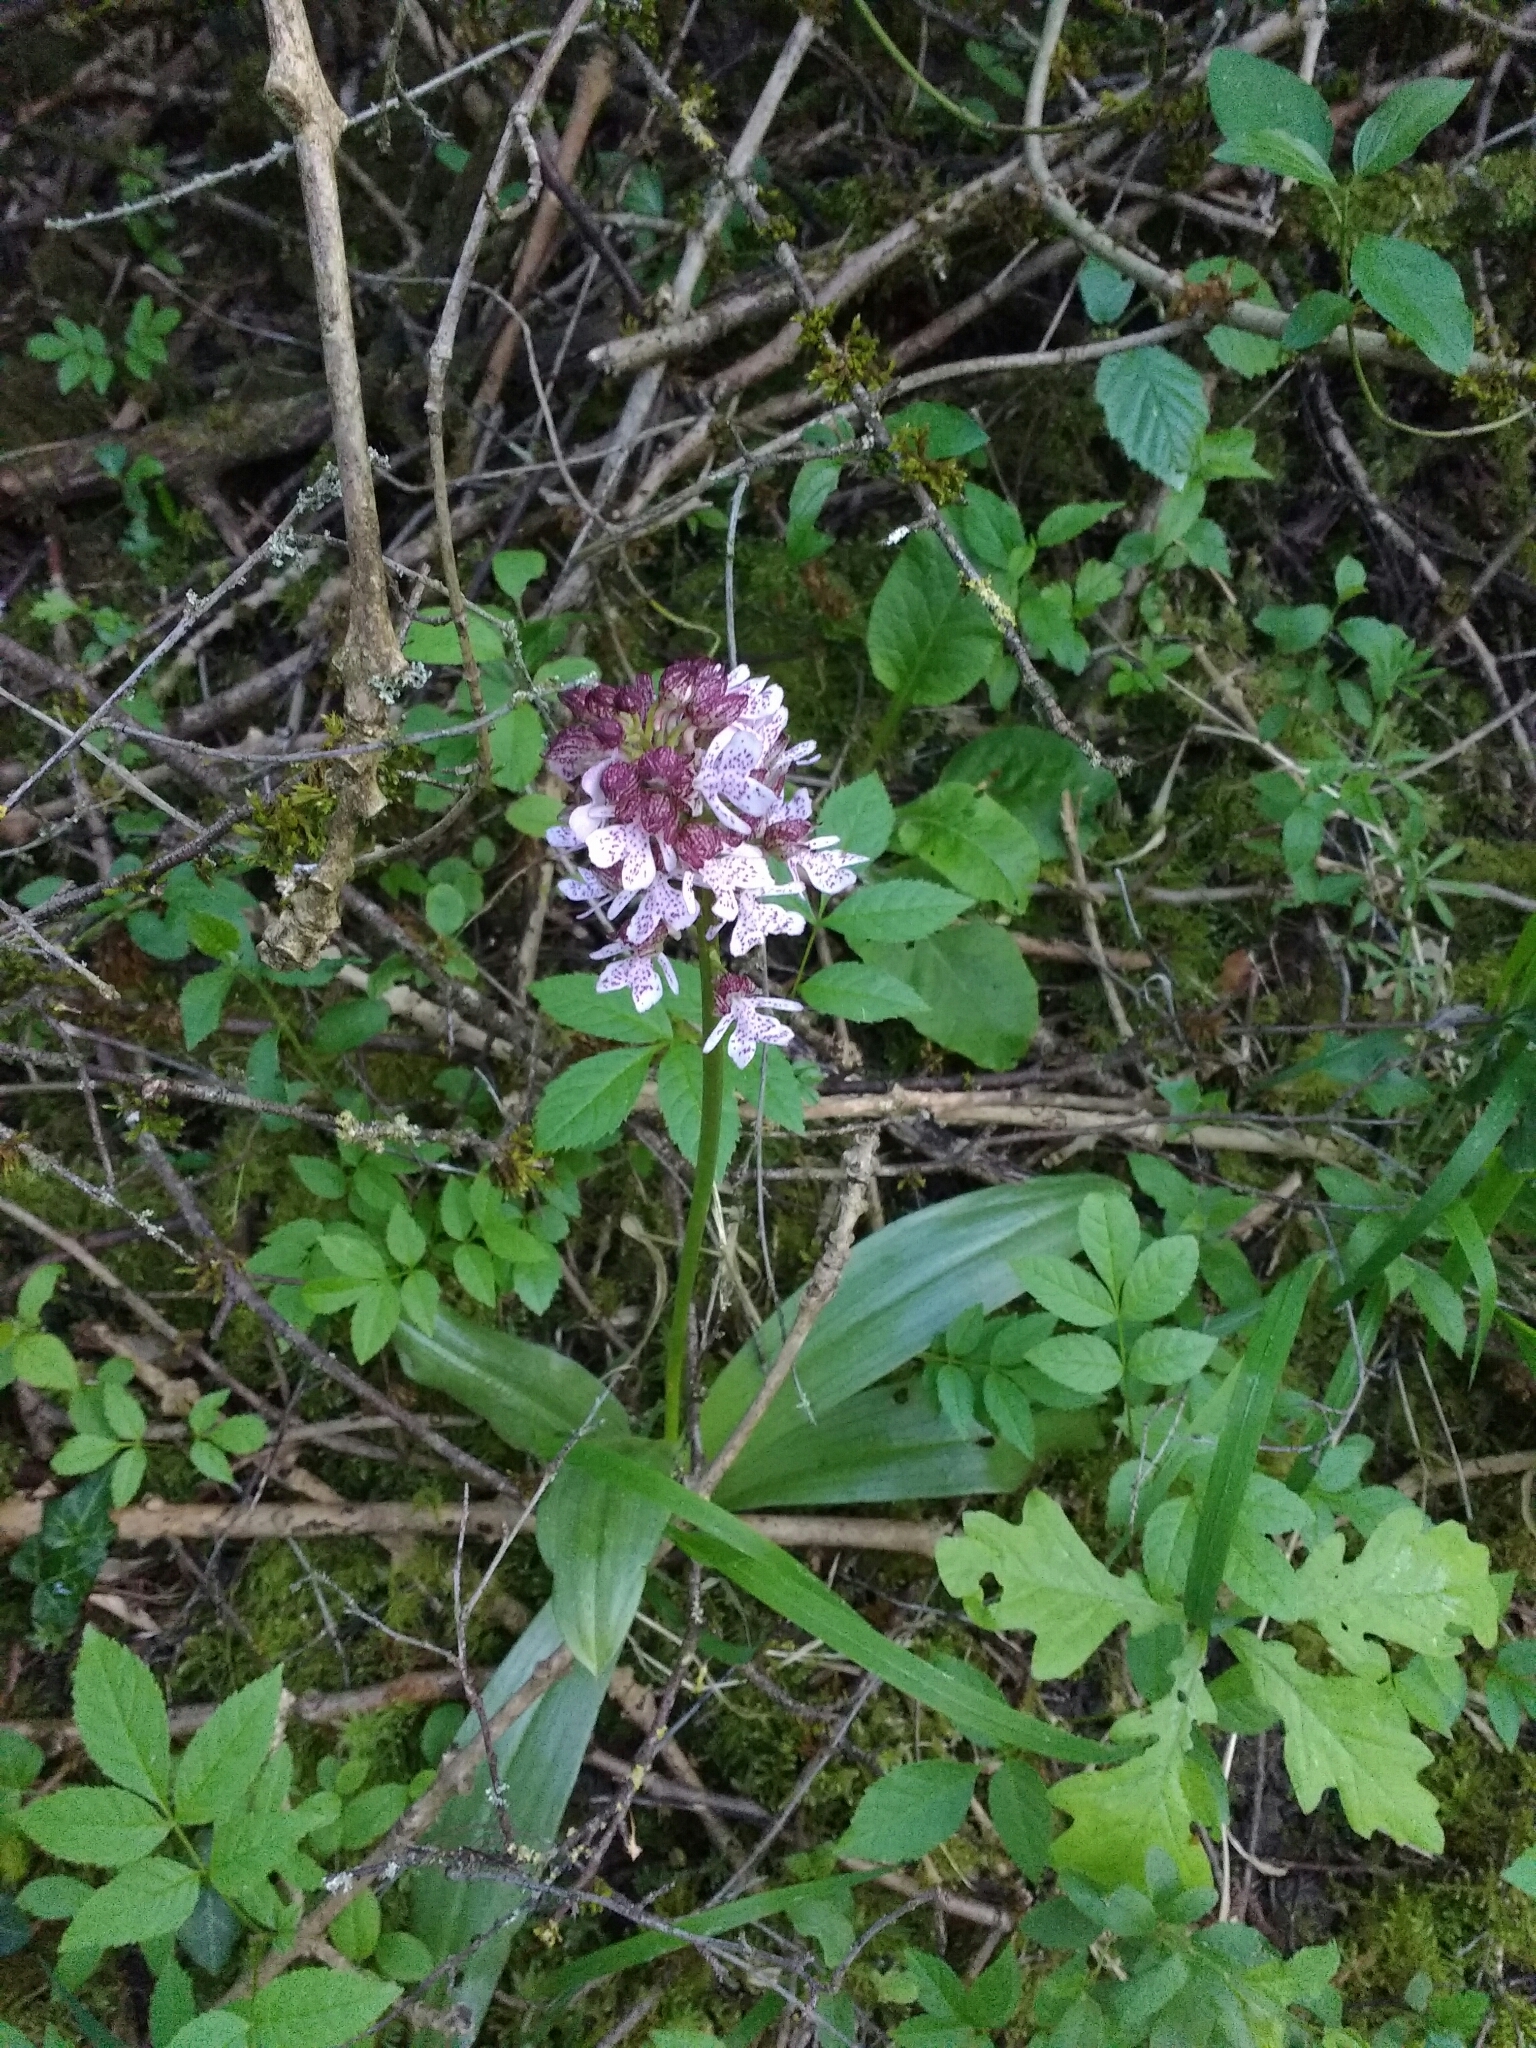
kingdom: Plantae
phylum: Tracheophyta
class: Liliopsida
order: Asparagales
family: Orchidaceae
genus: Orchis
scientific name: Orchis purpurea
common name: Lady orchid
